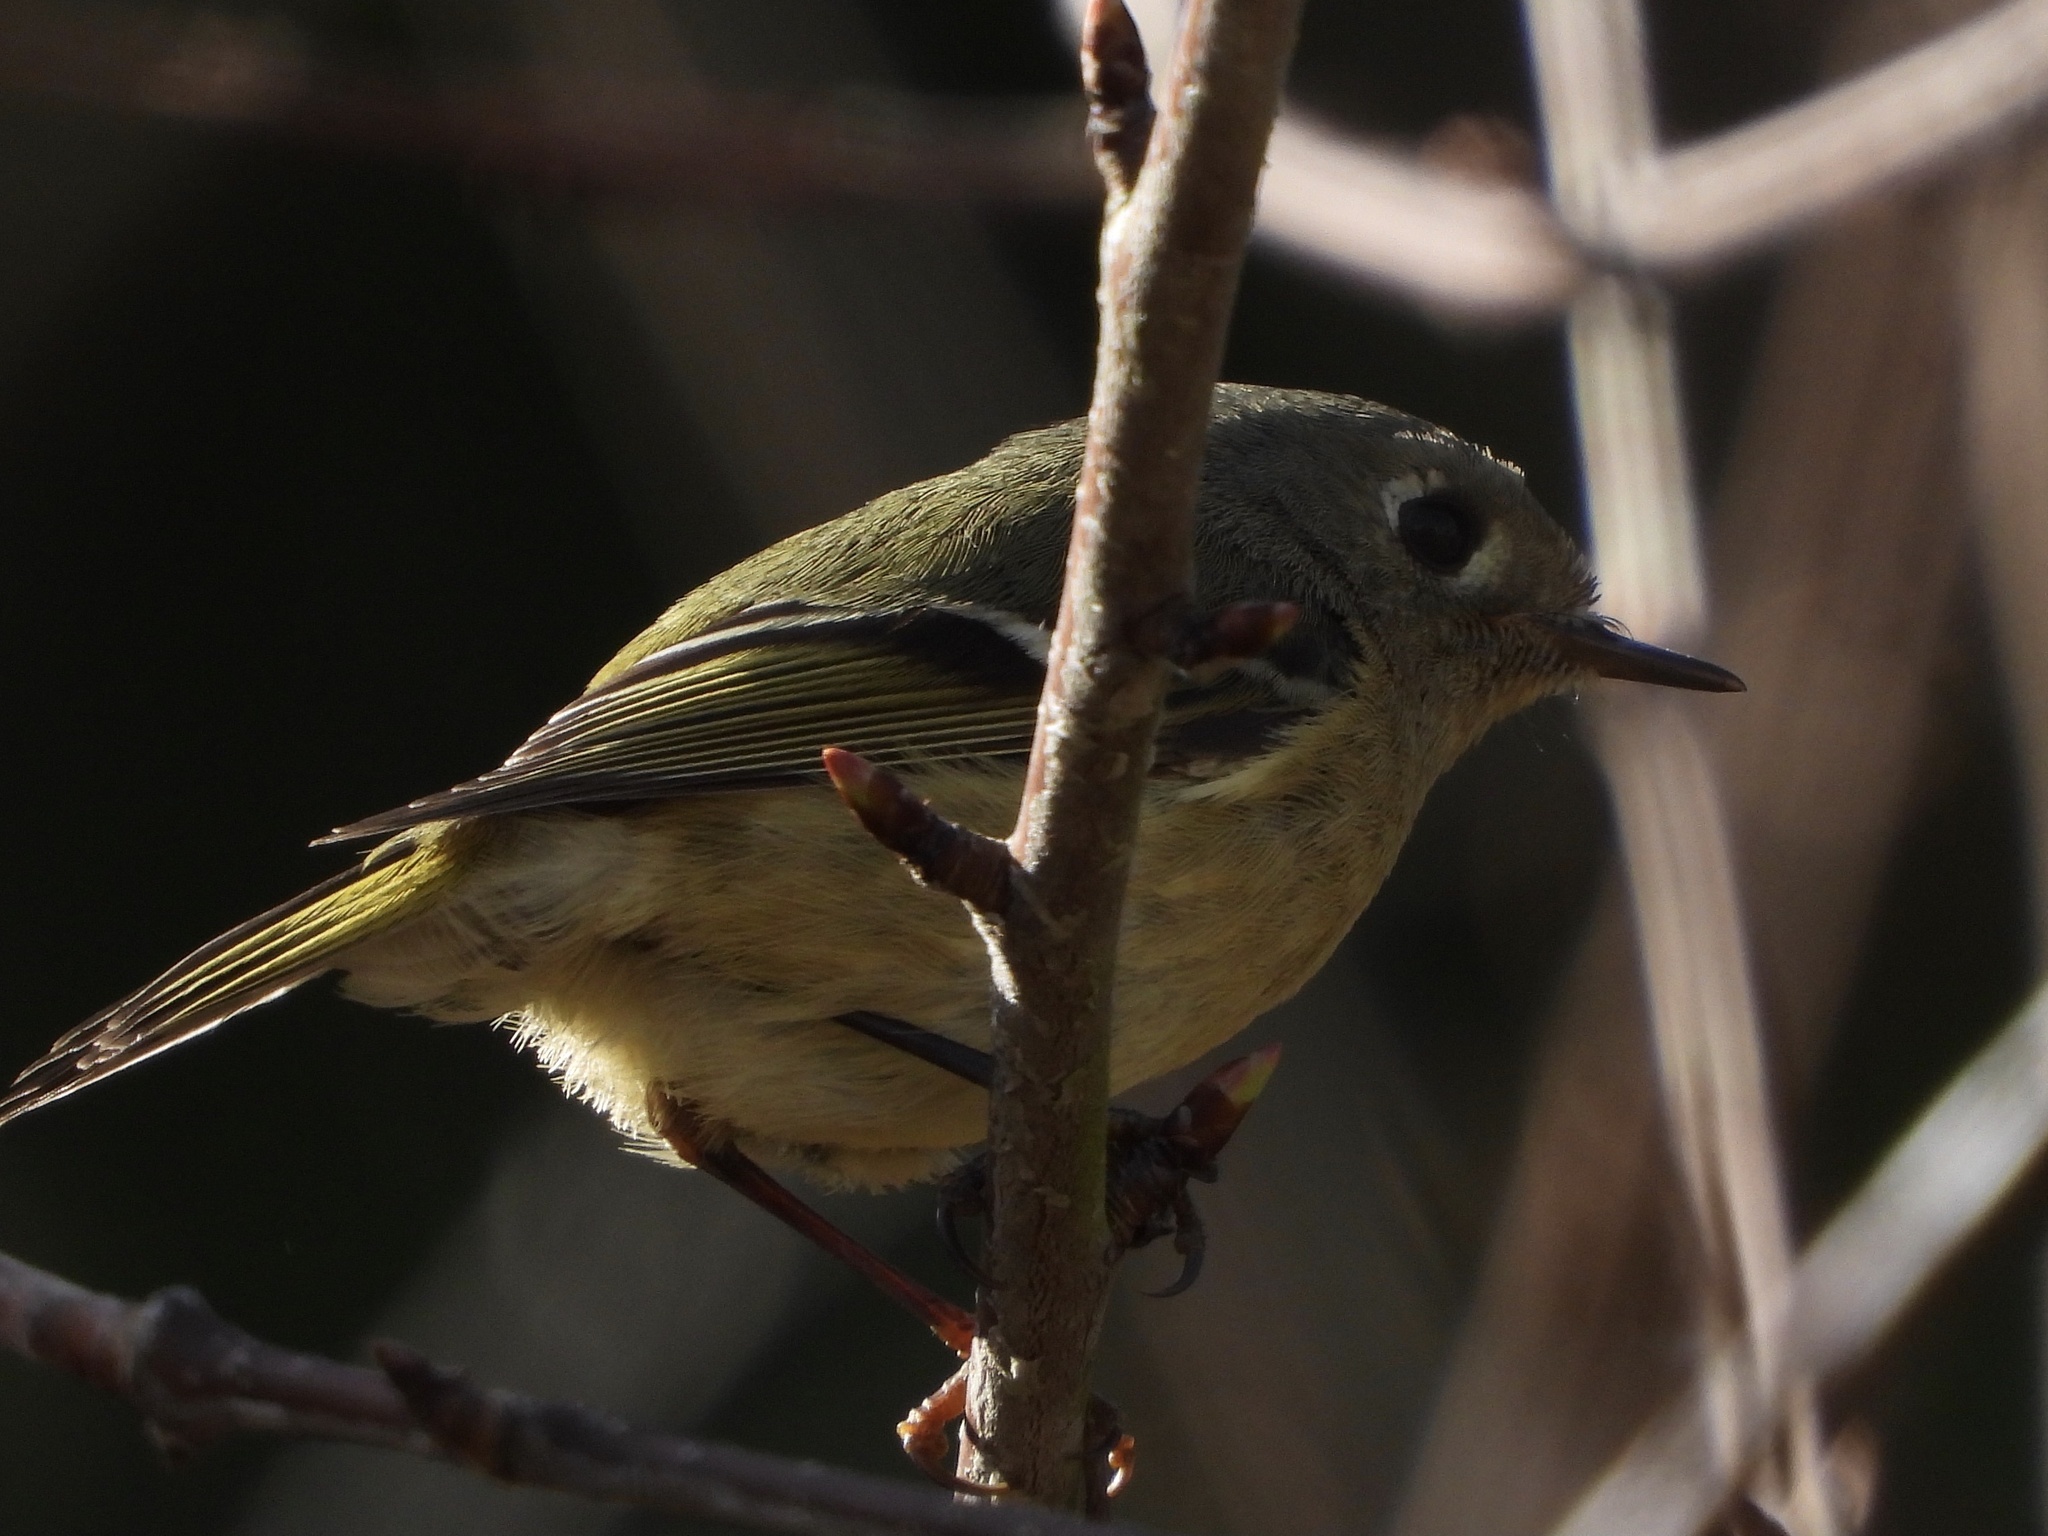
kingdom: Animalia
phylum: Chordata
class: Aves
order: Passeriformes
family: Regulidae
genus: Regulus
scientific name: Regulus calendula
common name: Ruby-crowned kinglet
